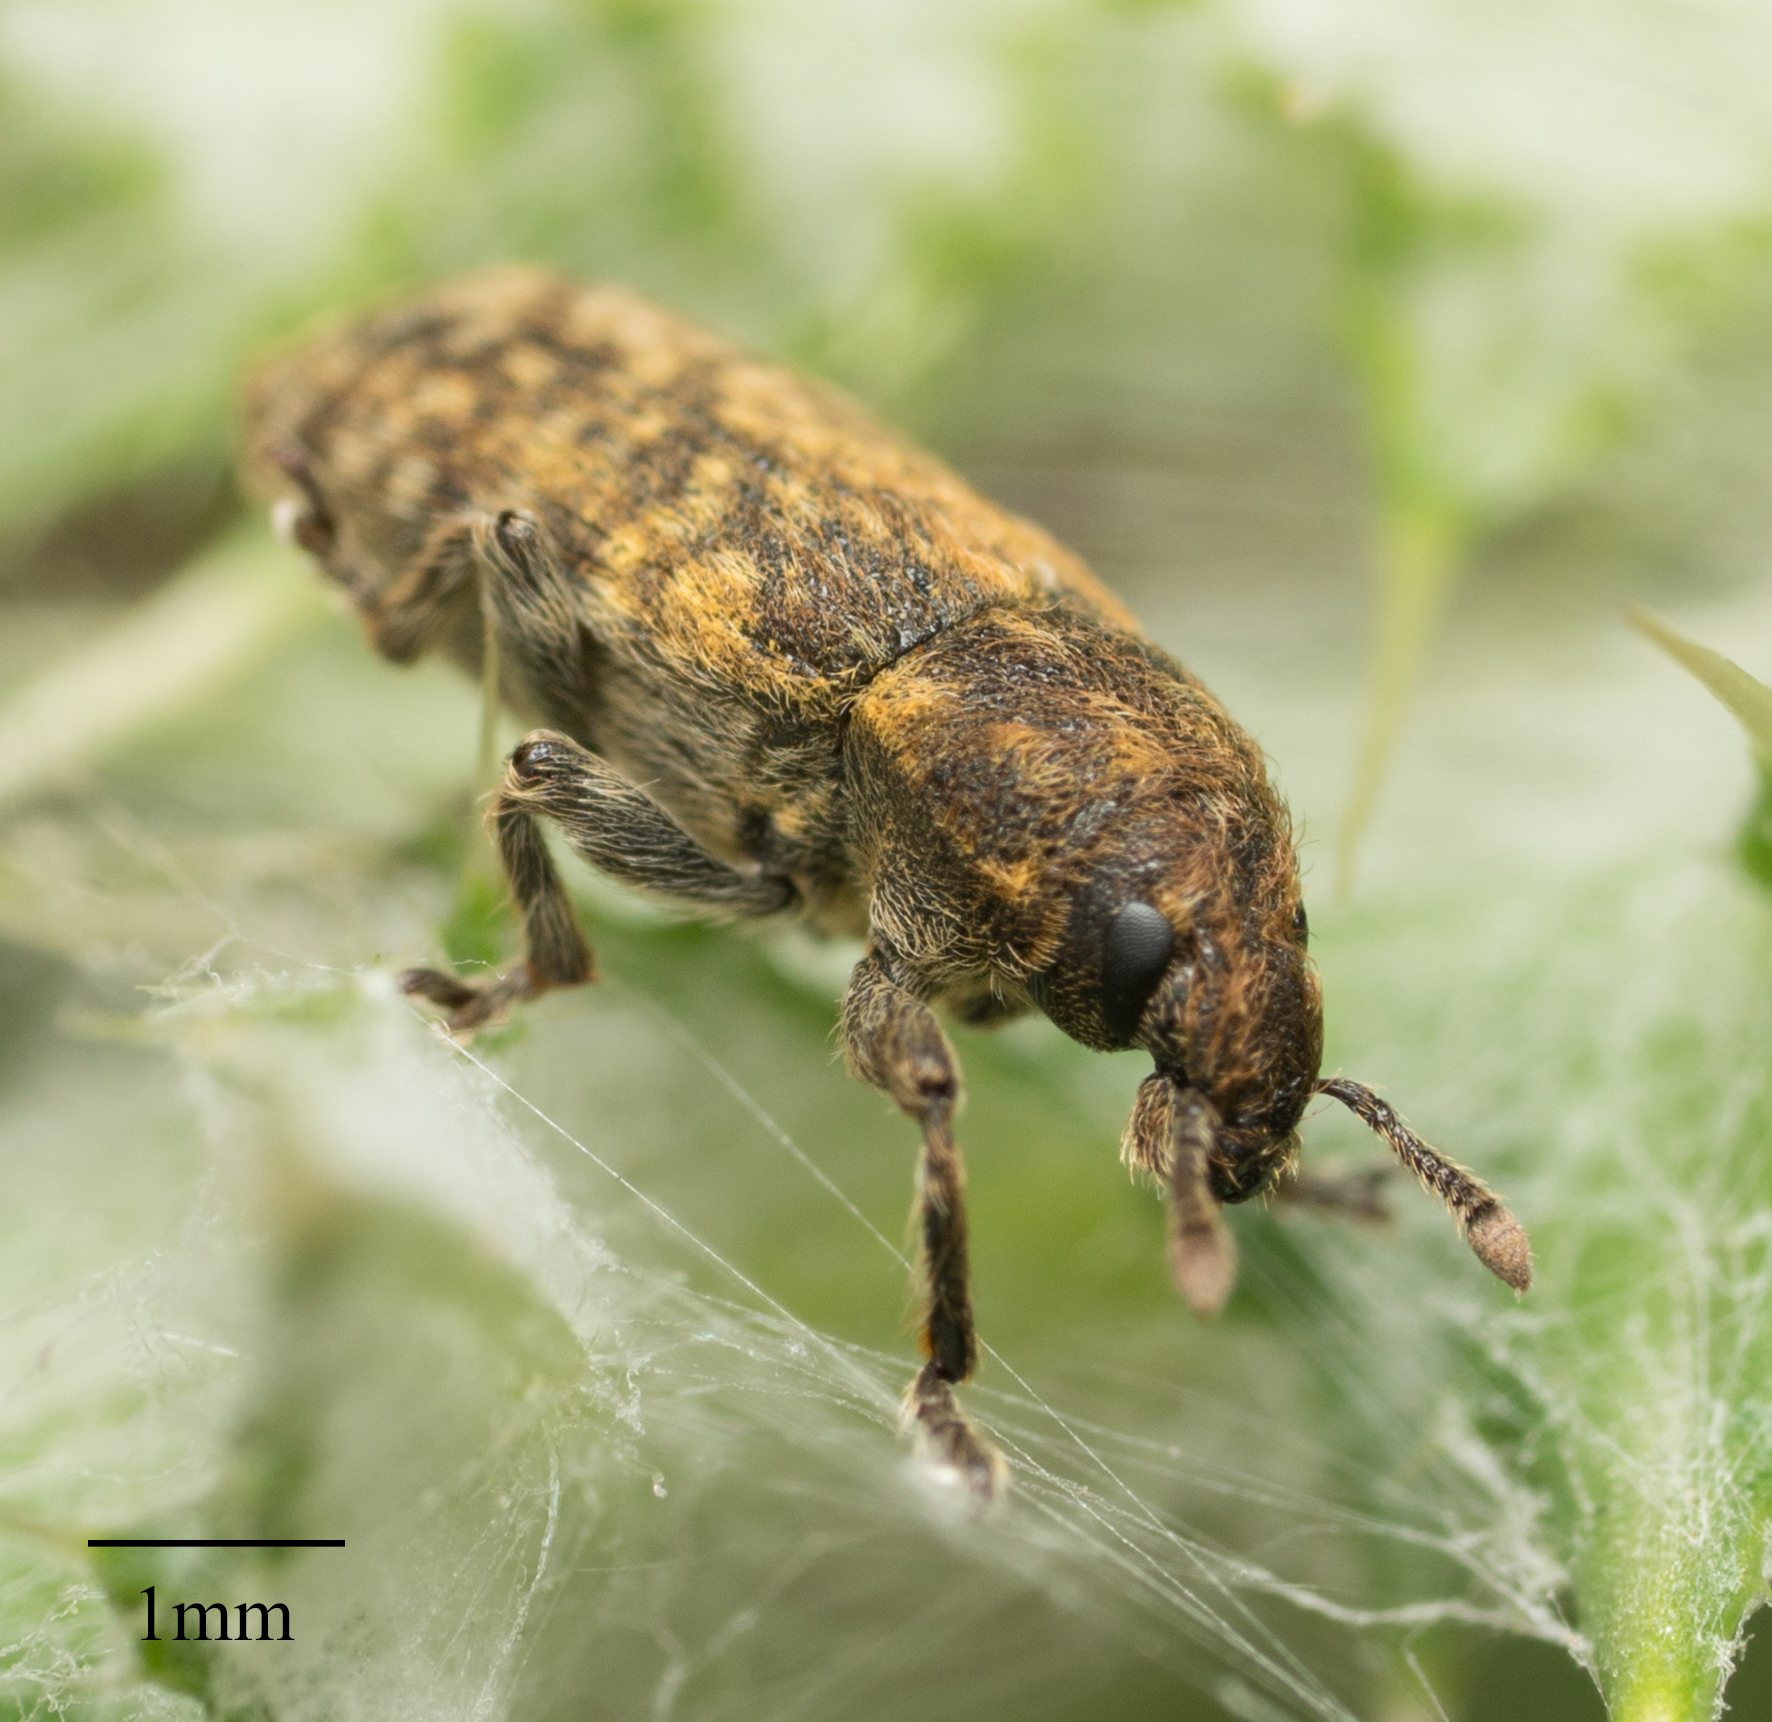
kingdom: Animalia
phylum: Arthropoda
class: Insecta
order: Coleoptera
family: Curculionidae
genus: Rhinocyllus
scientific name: Rhinocyllus conicus
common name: Weevil
